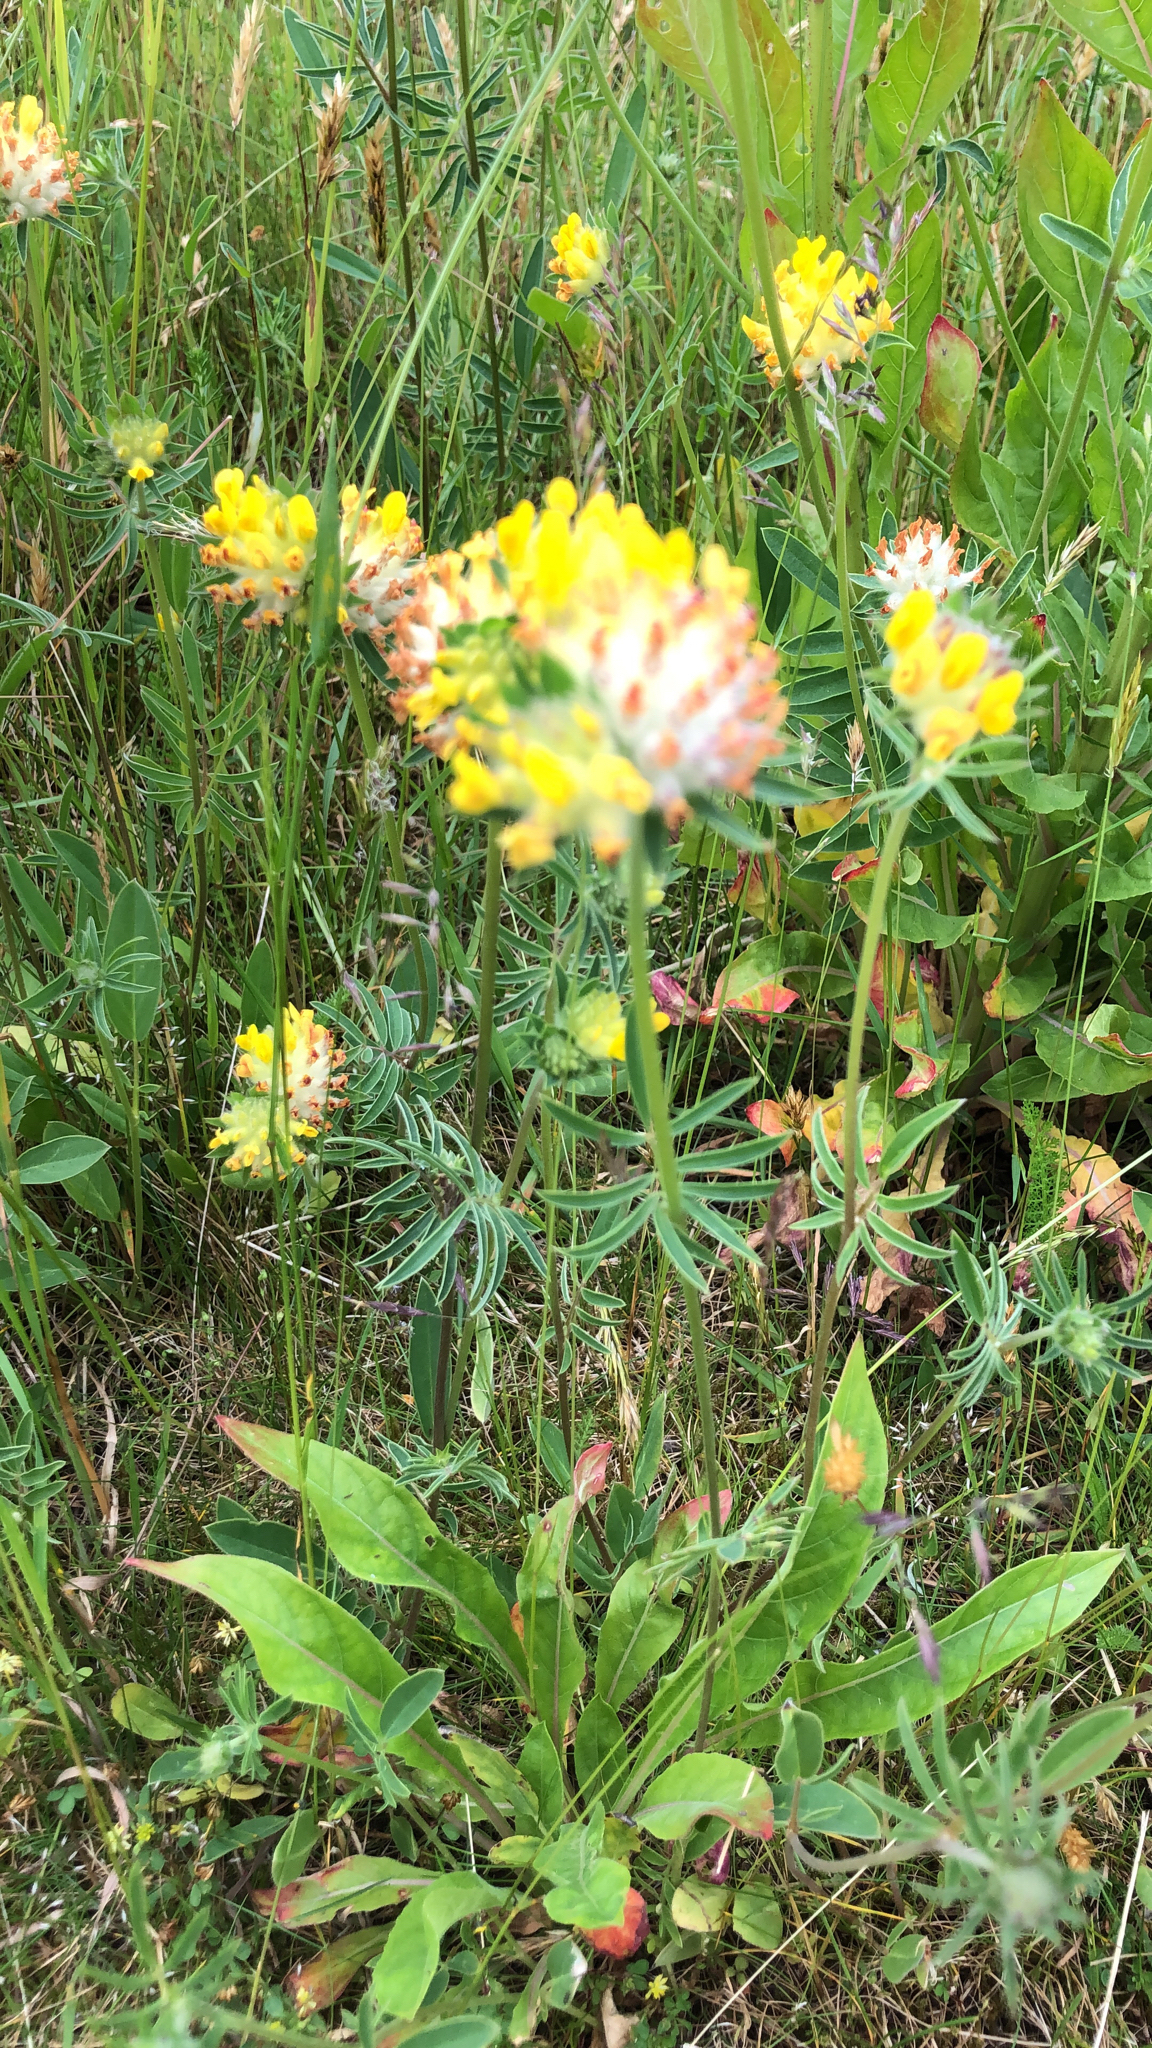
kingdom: Plantae
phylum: Tracheophyta
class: Magnoliopsida
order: Fabales
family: Fabaceae
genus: Anthyllis
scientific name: Anthyllis vulneraria
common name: Kidney vetch
